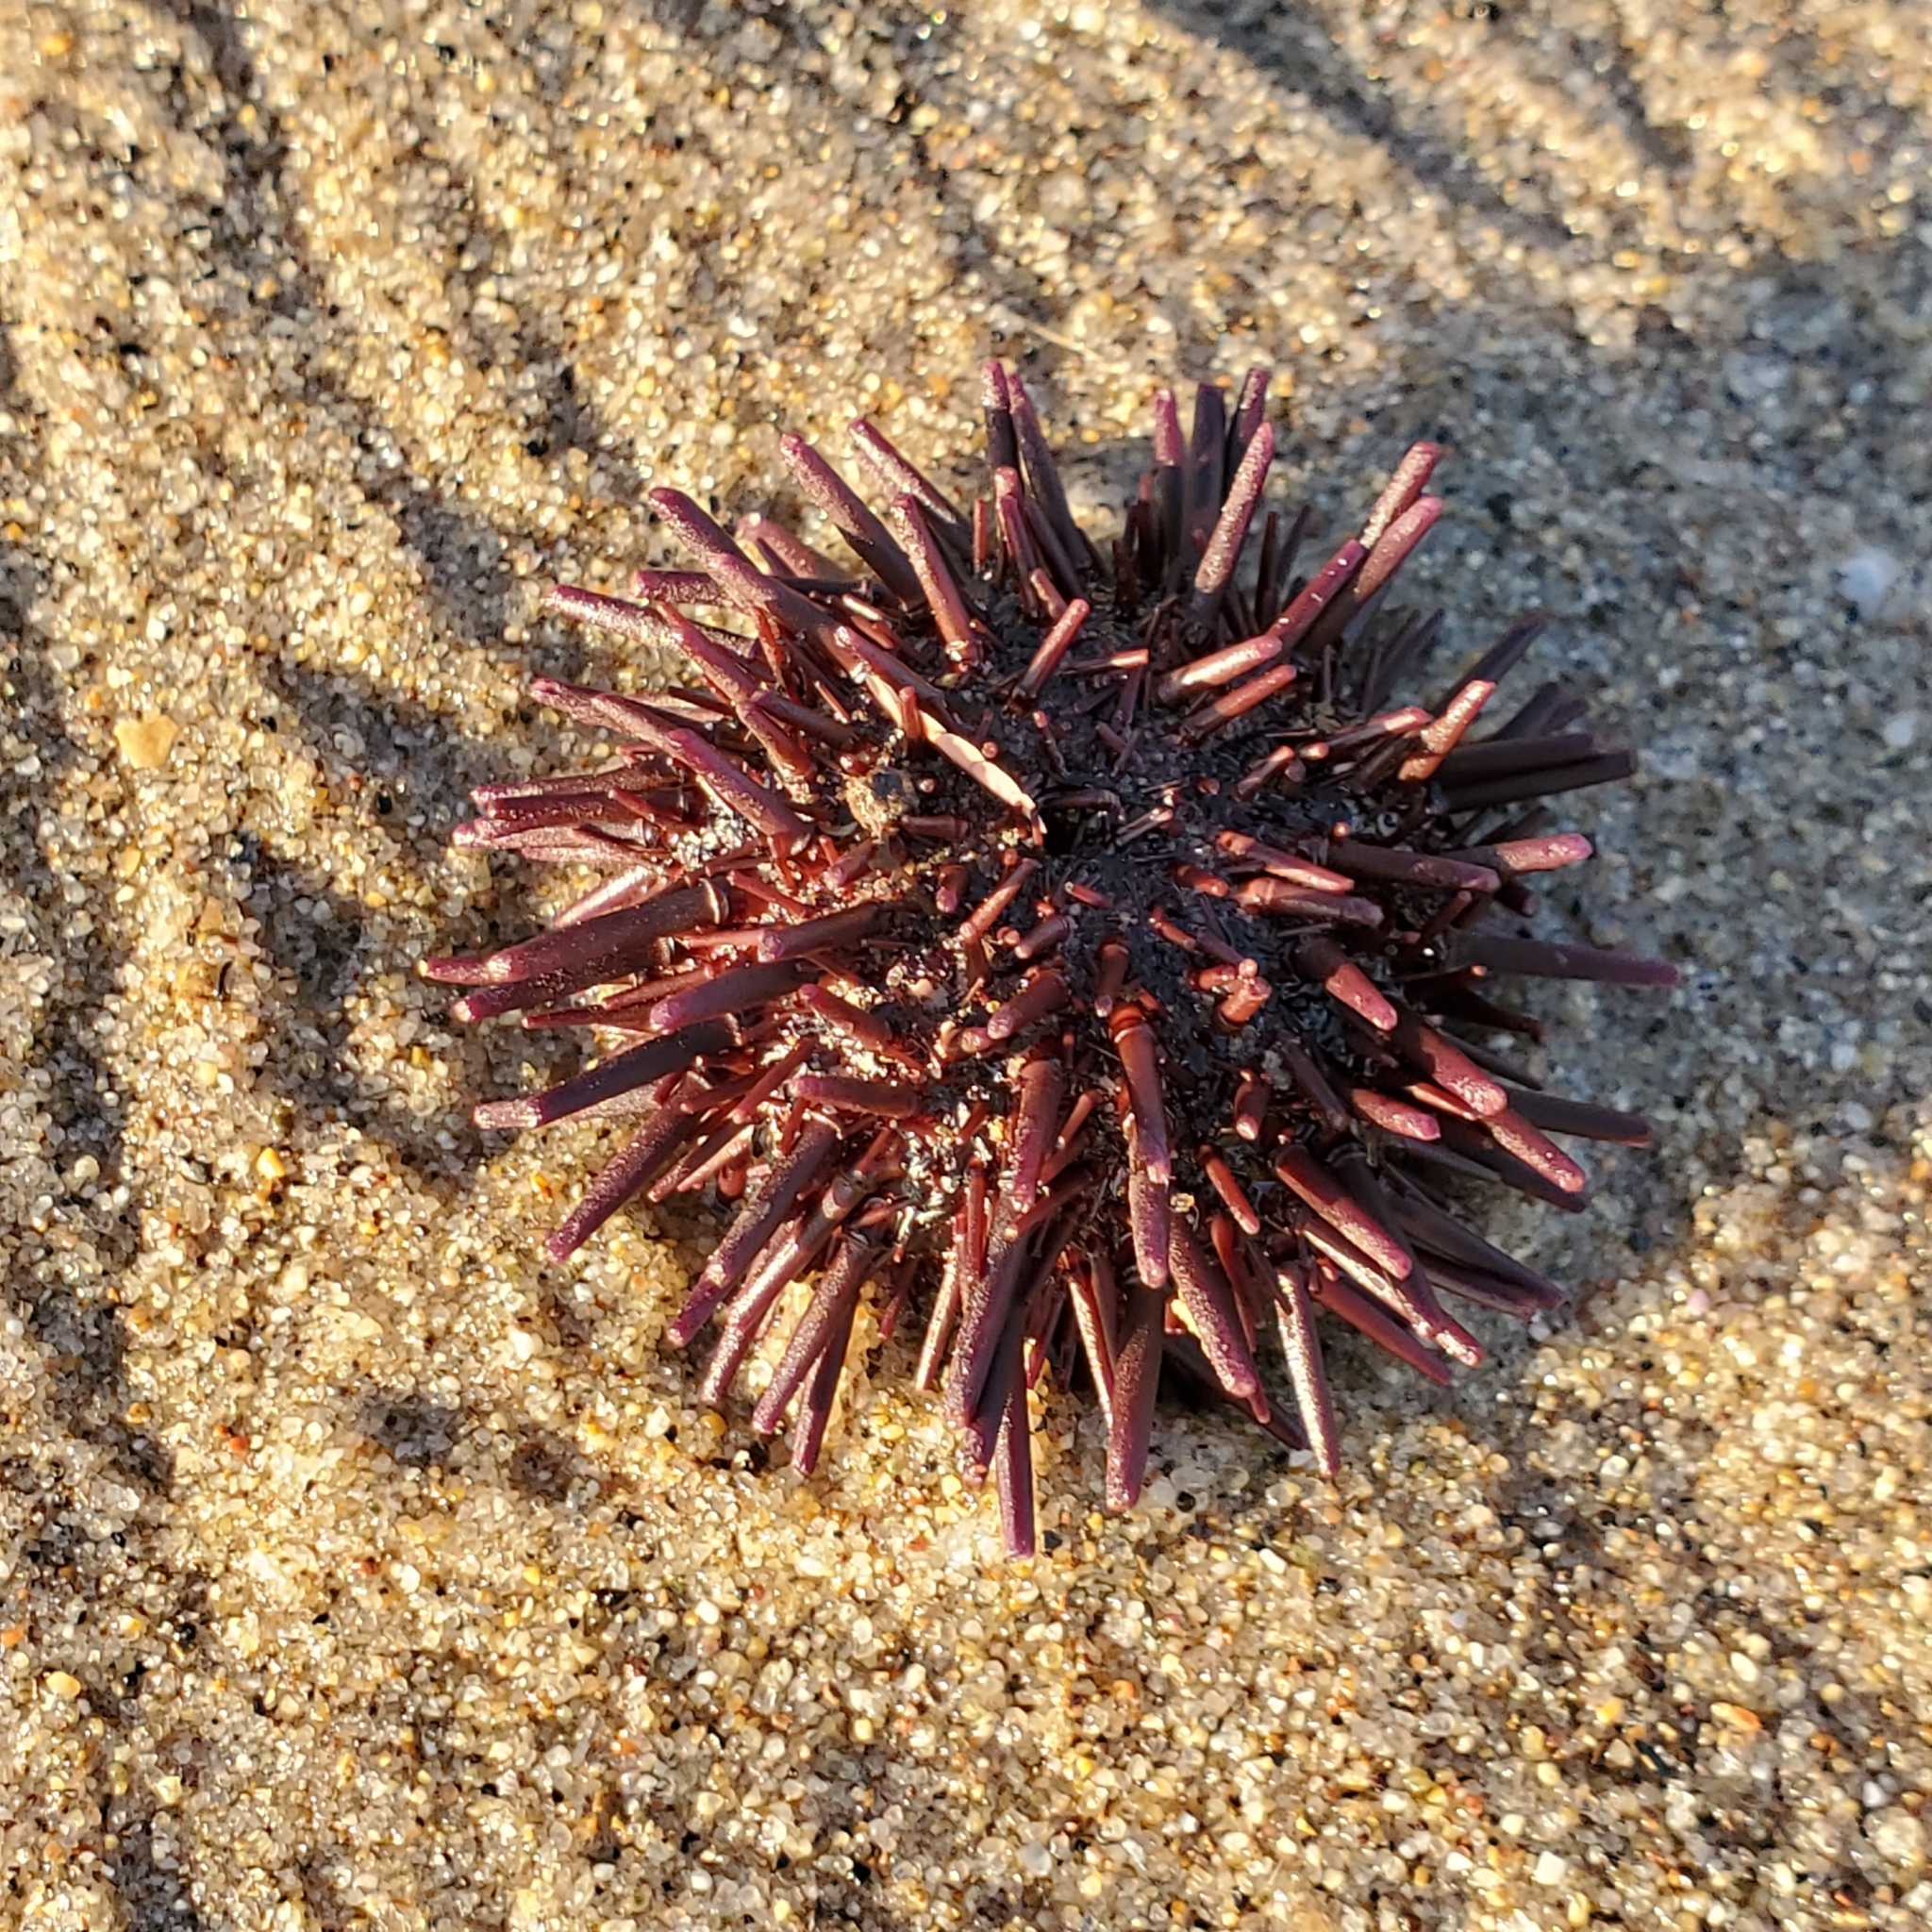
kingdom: Animalia
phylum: Echinodermata
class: Echinoidea
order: Camarodonta
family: Strongylocentrotidae
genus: Strongylocentrotus
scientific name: Strongylocentrotus purpuratus
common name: Purple sea urchin
